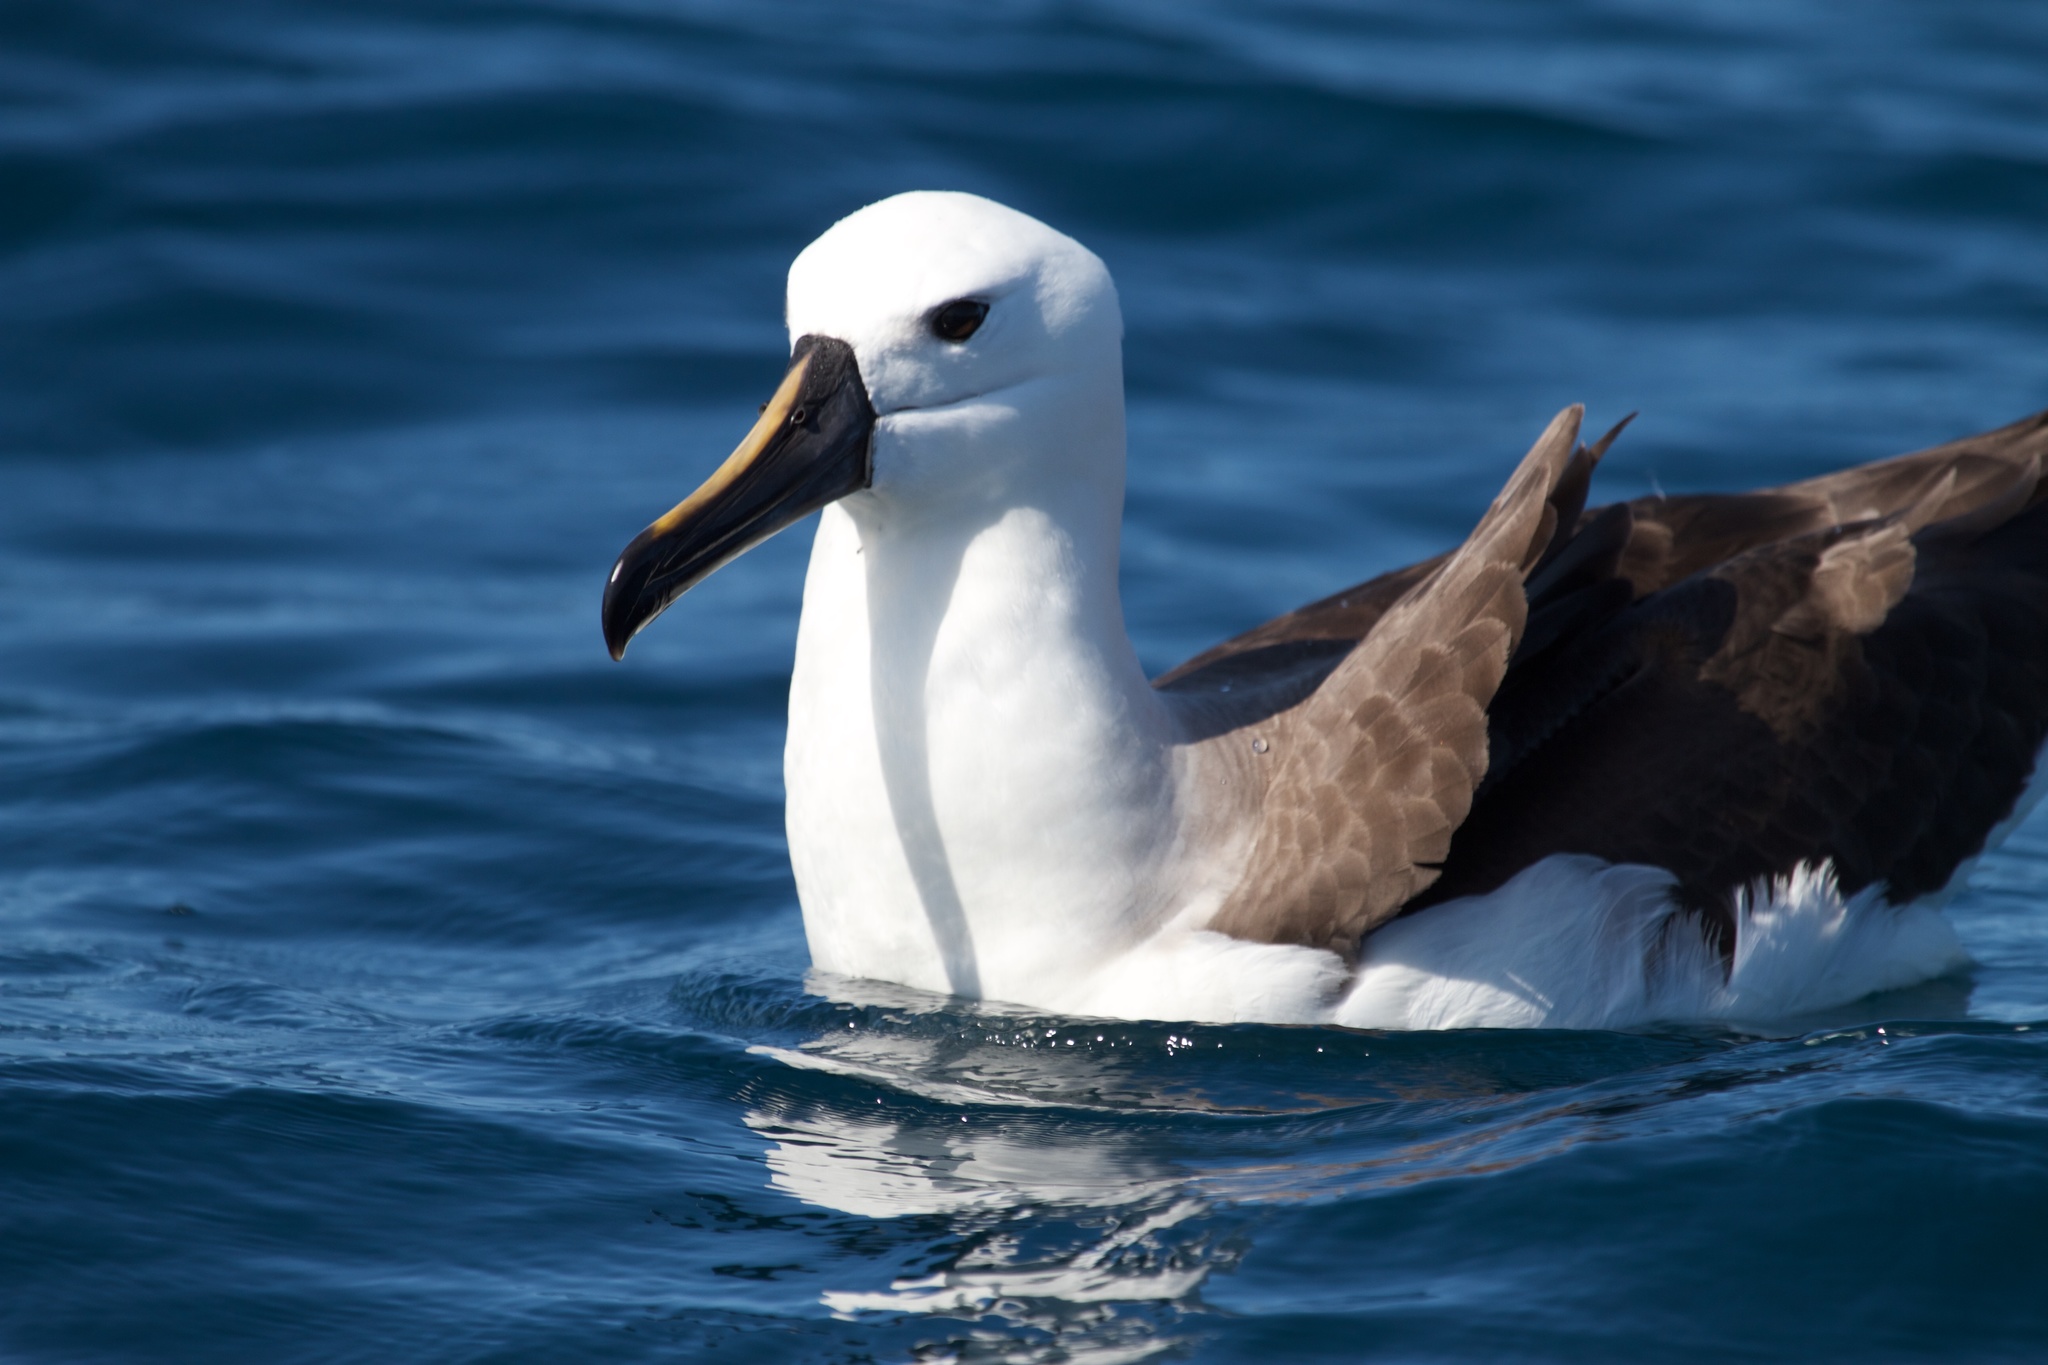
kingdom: Animalia
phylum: Chordata
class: Aves
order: Procellariiformes
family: Diomedeidae
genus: Thalassarche
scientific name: Thalassarche carteri
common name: Indian yellow-nosed albatross
